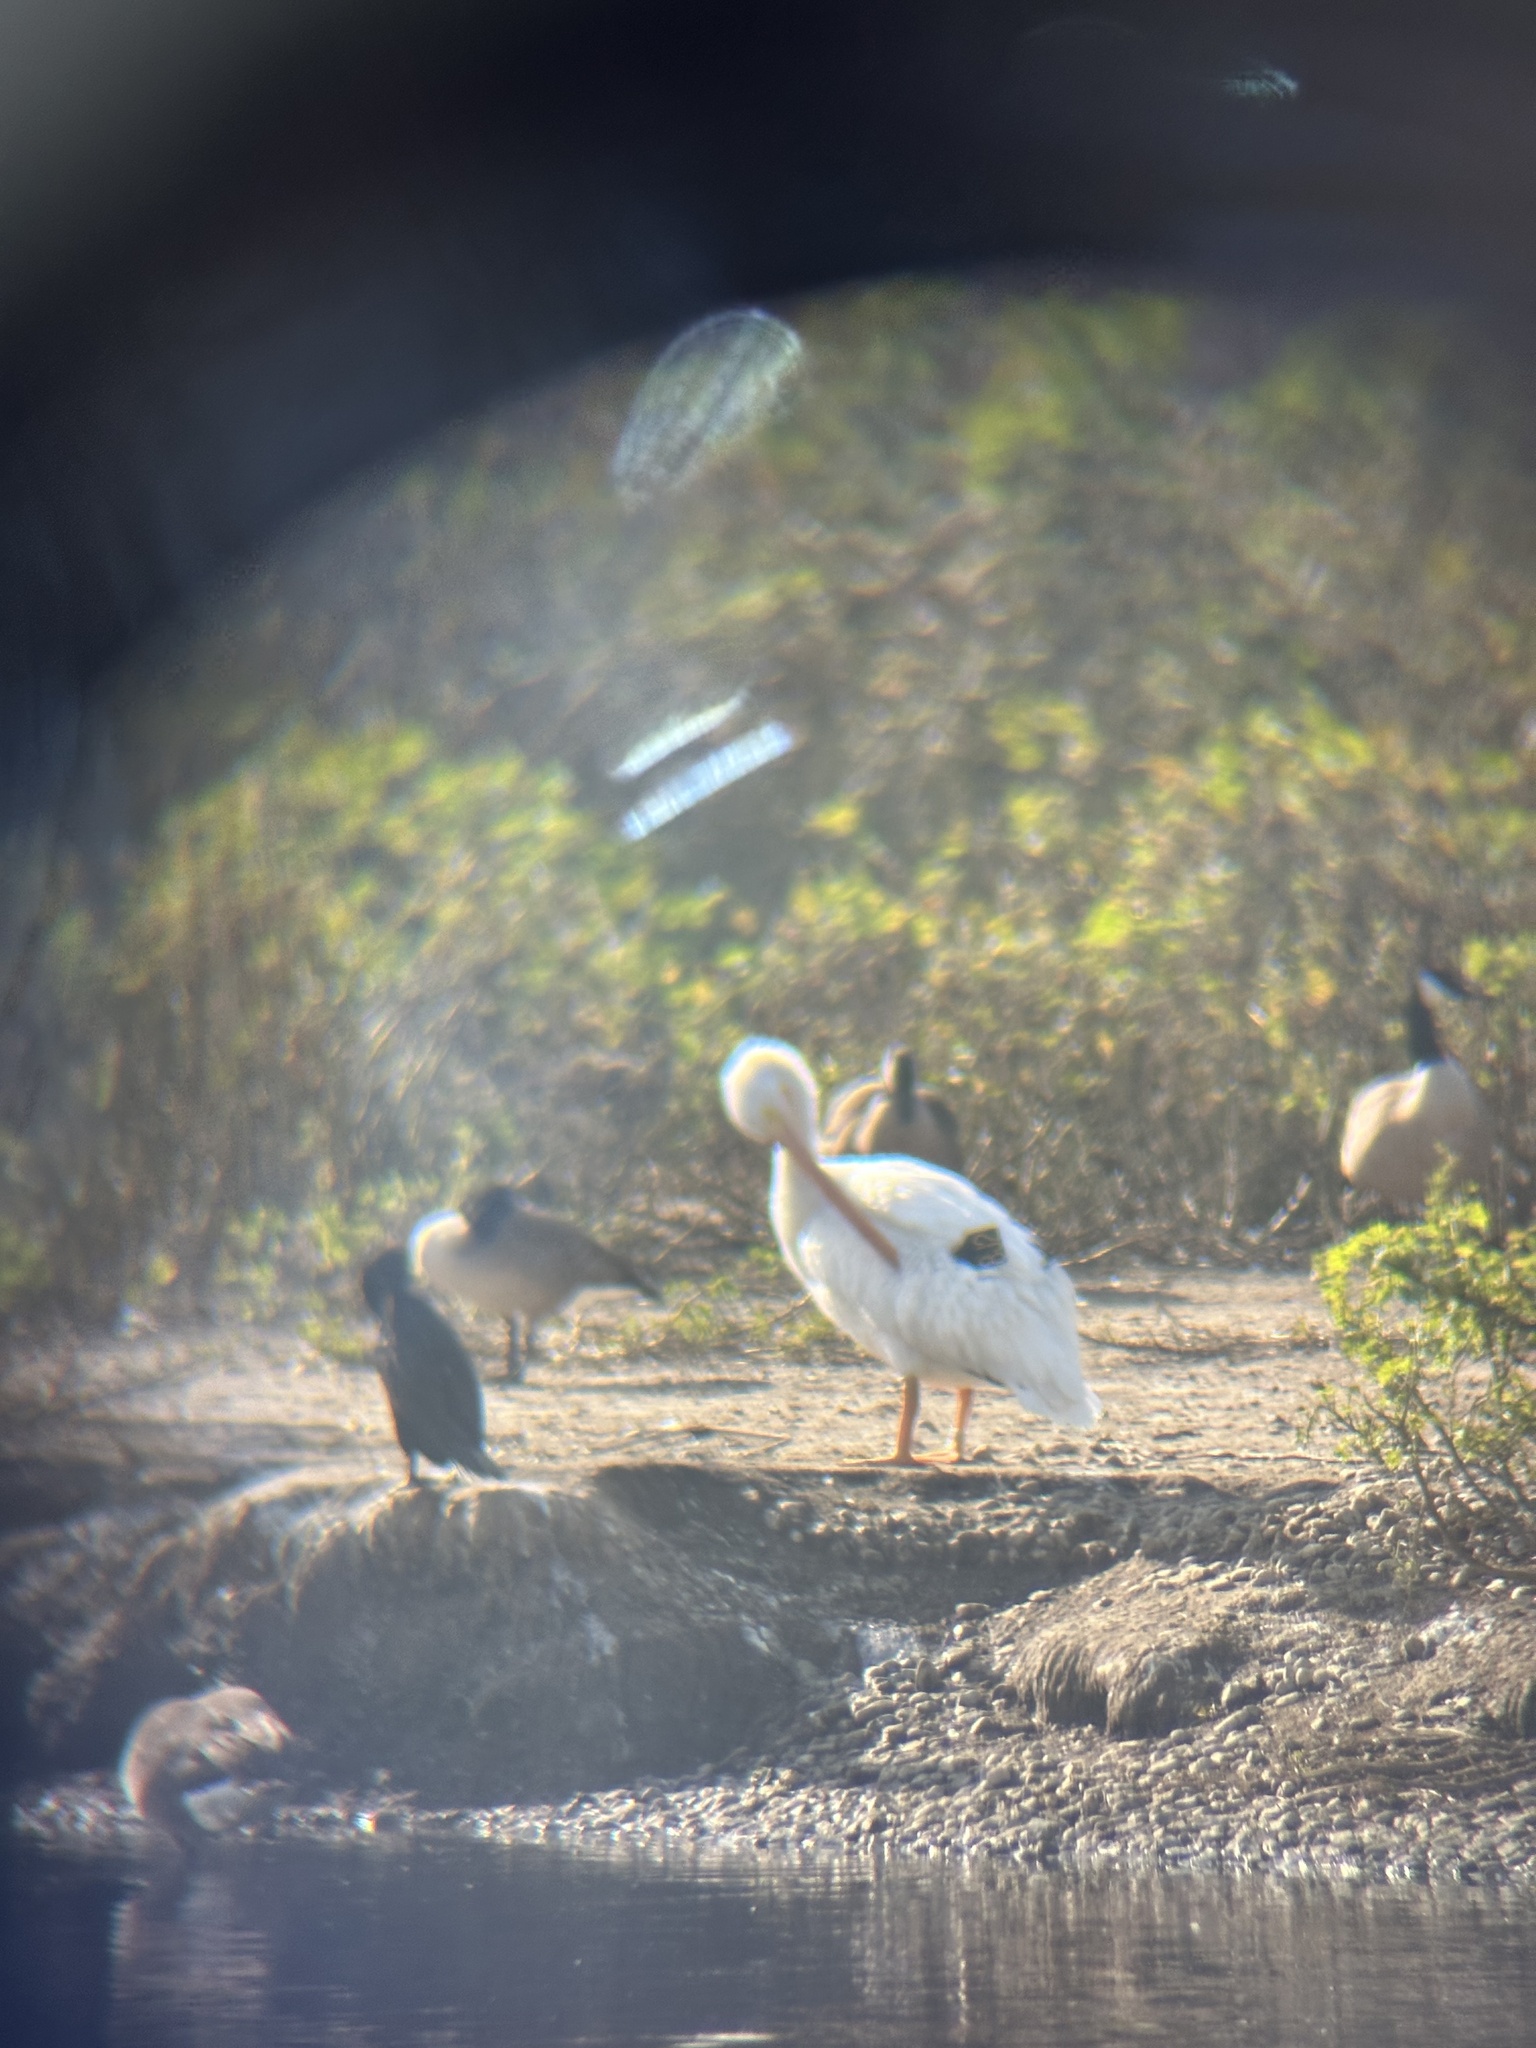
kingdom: Animalia
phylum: Chordata
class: Aves
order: Anseriformes
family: Anatidae
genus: Branta
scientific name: Branta canadensis
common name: Canada goose
